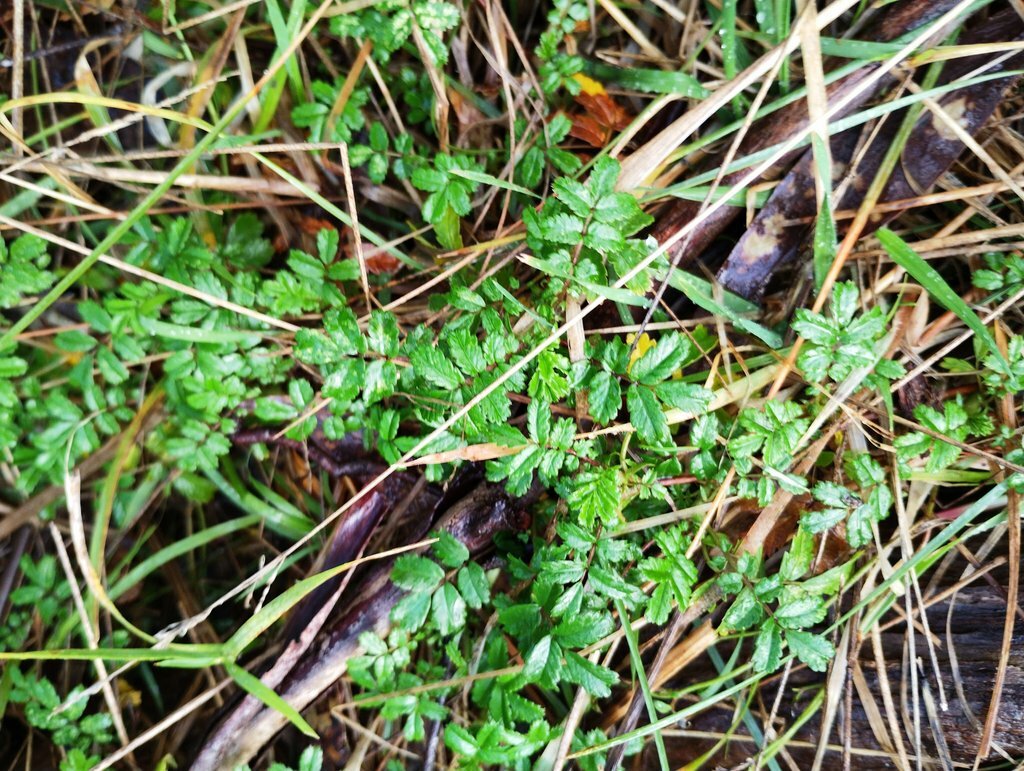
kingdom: Plantae
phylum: Tracheophyta
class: Magnoliopsida
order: Rosales
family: Rosaceae
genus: Acaena
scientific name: Acaena novae-zelandiae
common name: Pirri-pirri-bur
